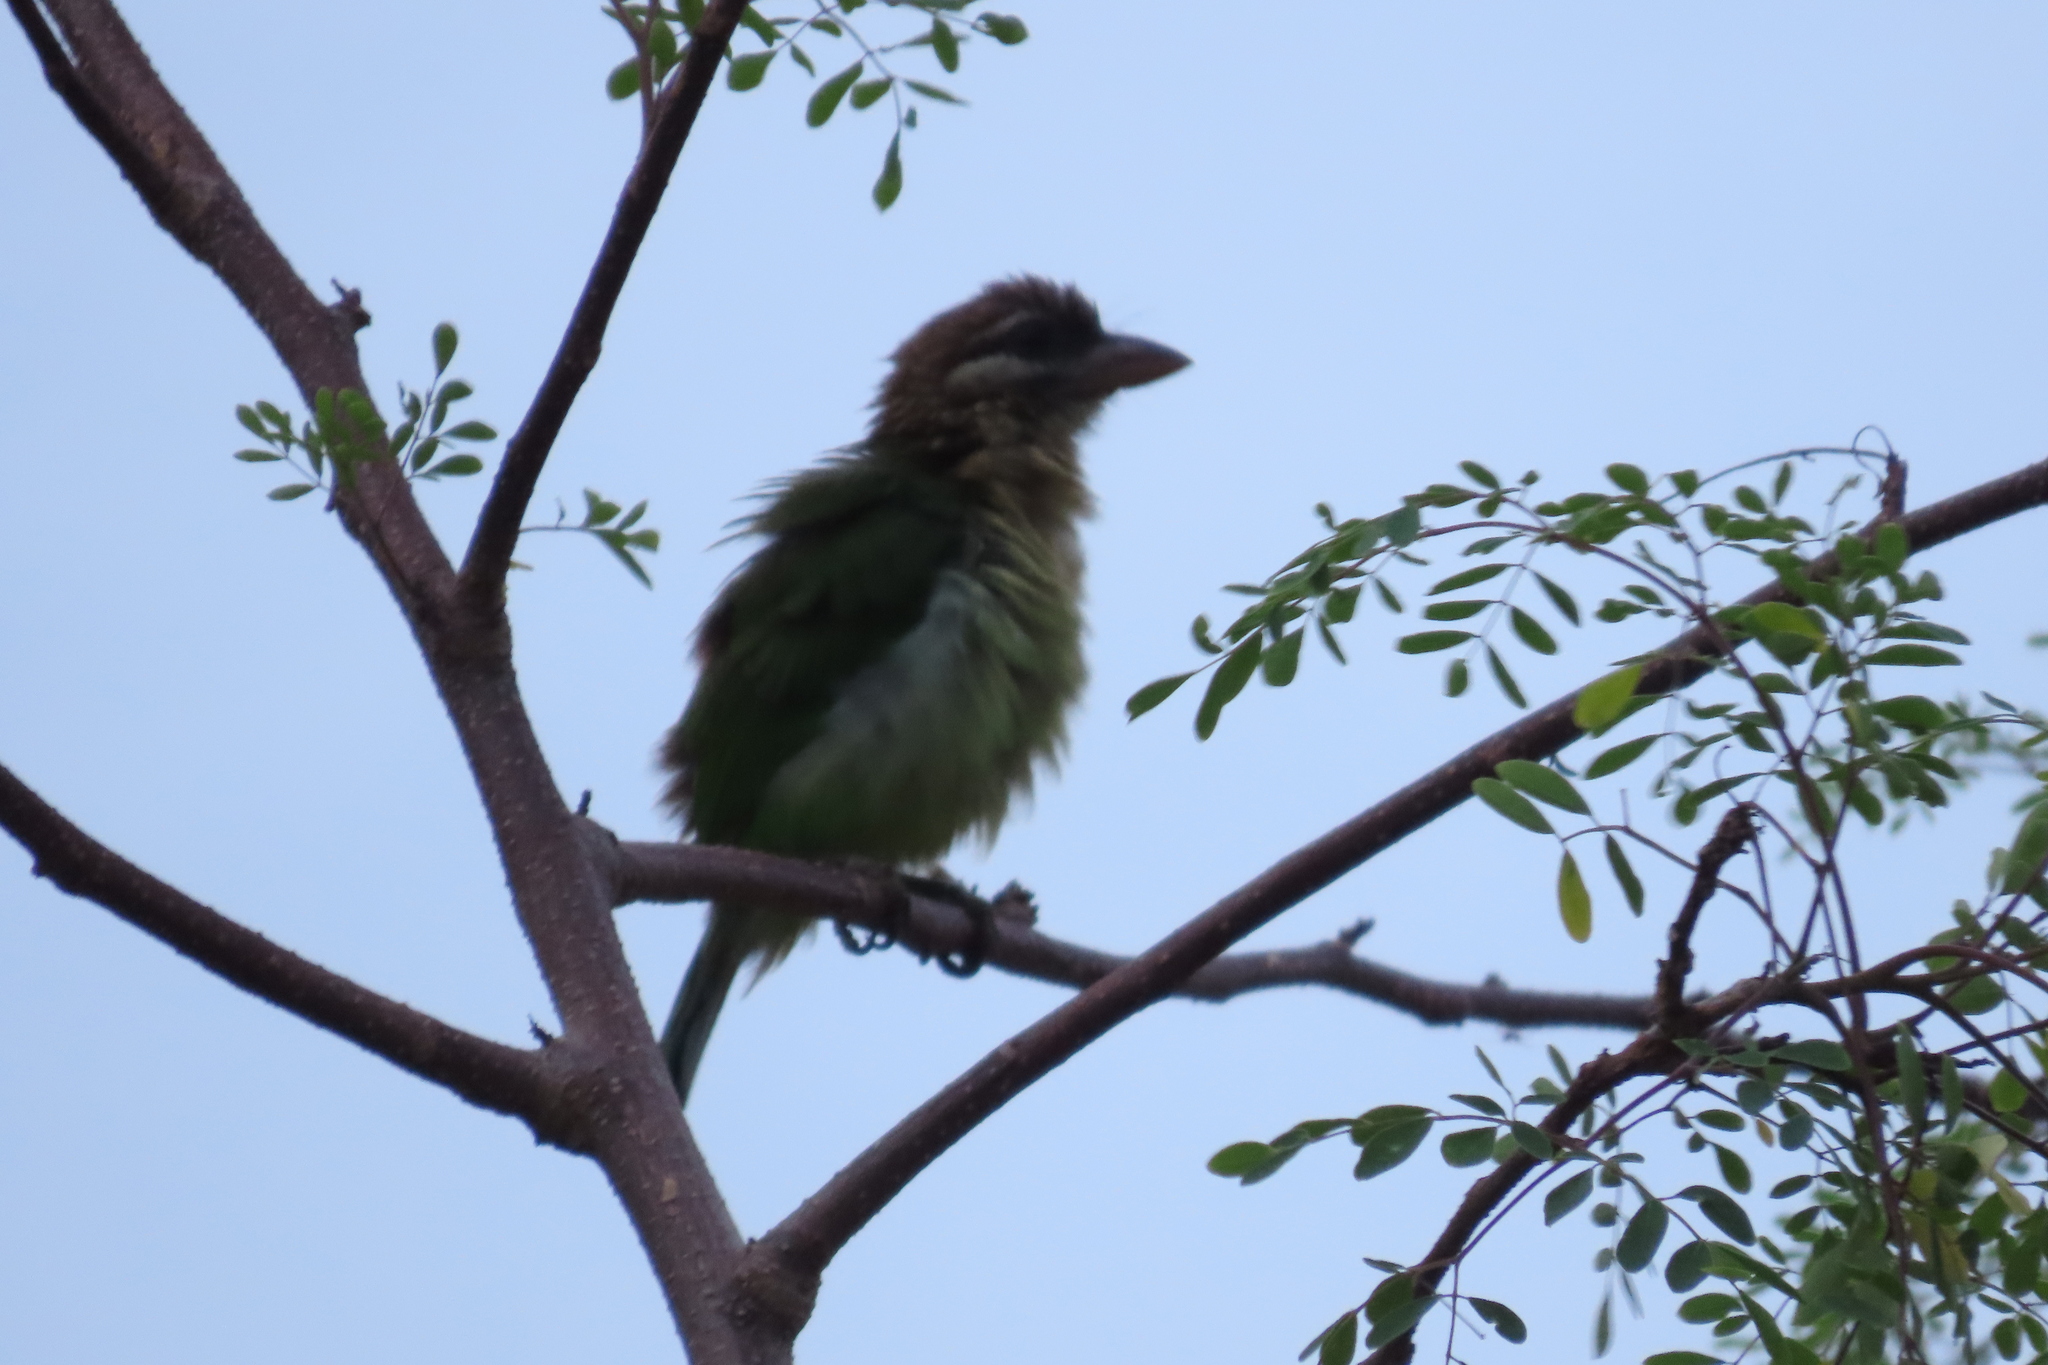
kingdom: Animalia
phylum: Chordata
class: Aves
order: Piciformes
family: Megalaimidae
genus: Psilopogon
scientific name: Psilopogon viridis
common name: White-cheeked barbet
